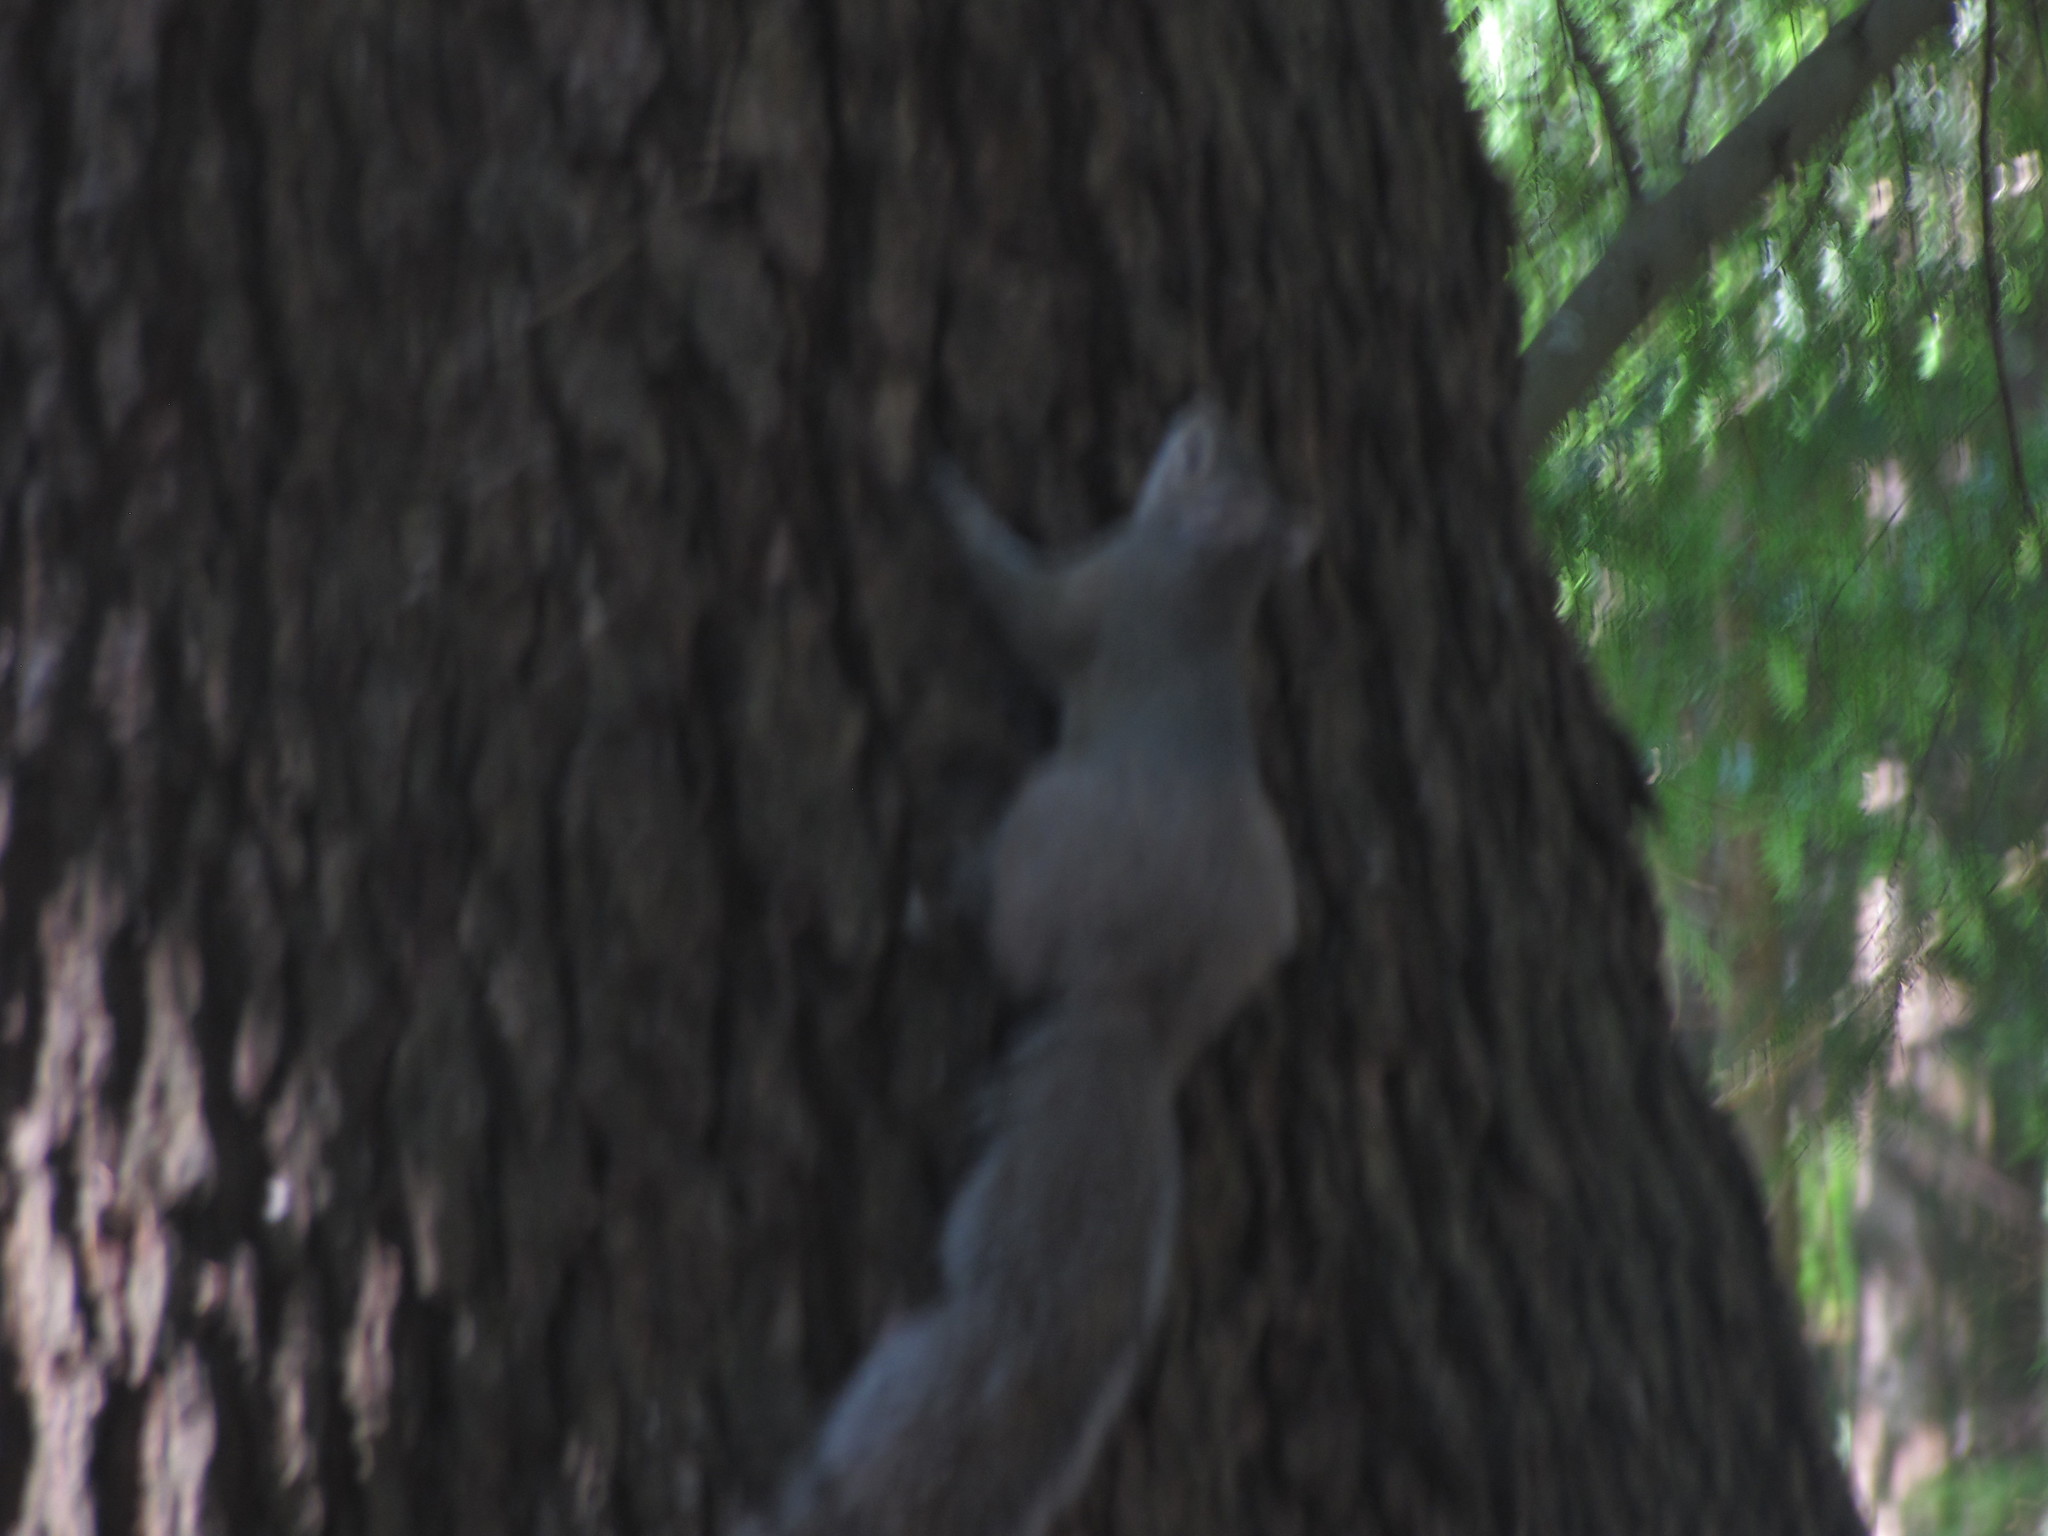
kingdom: Animalia
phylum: Chordata
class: Mammalia
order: Rodentia
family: Sciuridae
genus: Sciurus
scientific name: Sciurus carolinensis
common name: Eastern gray squirrel
